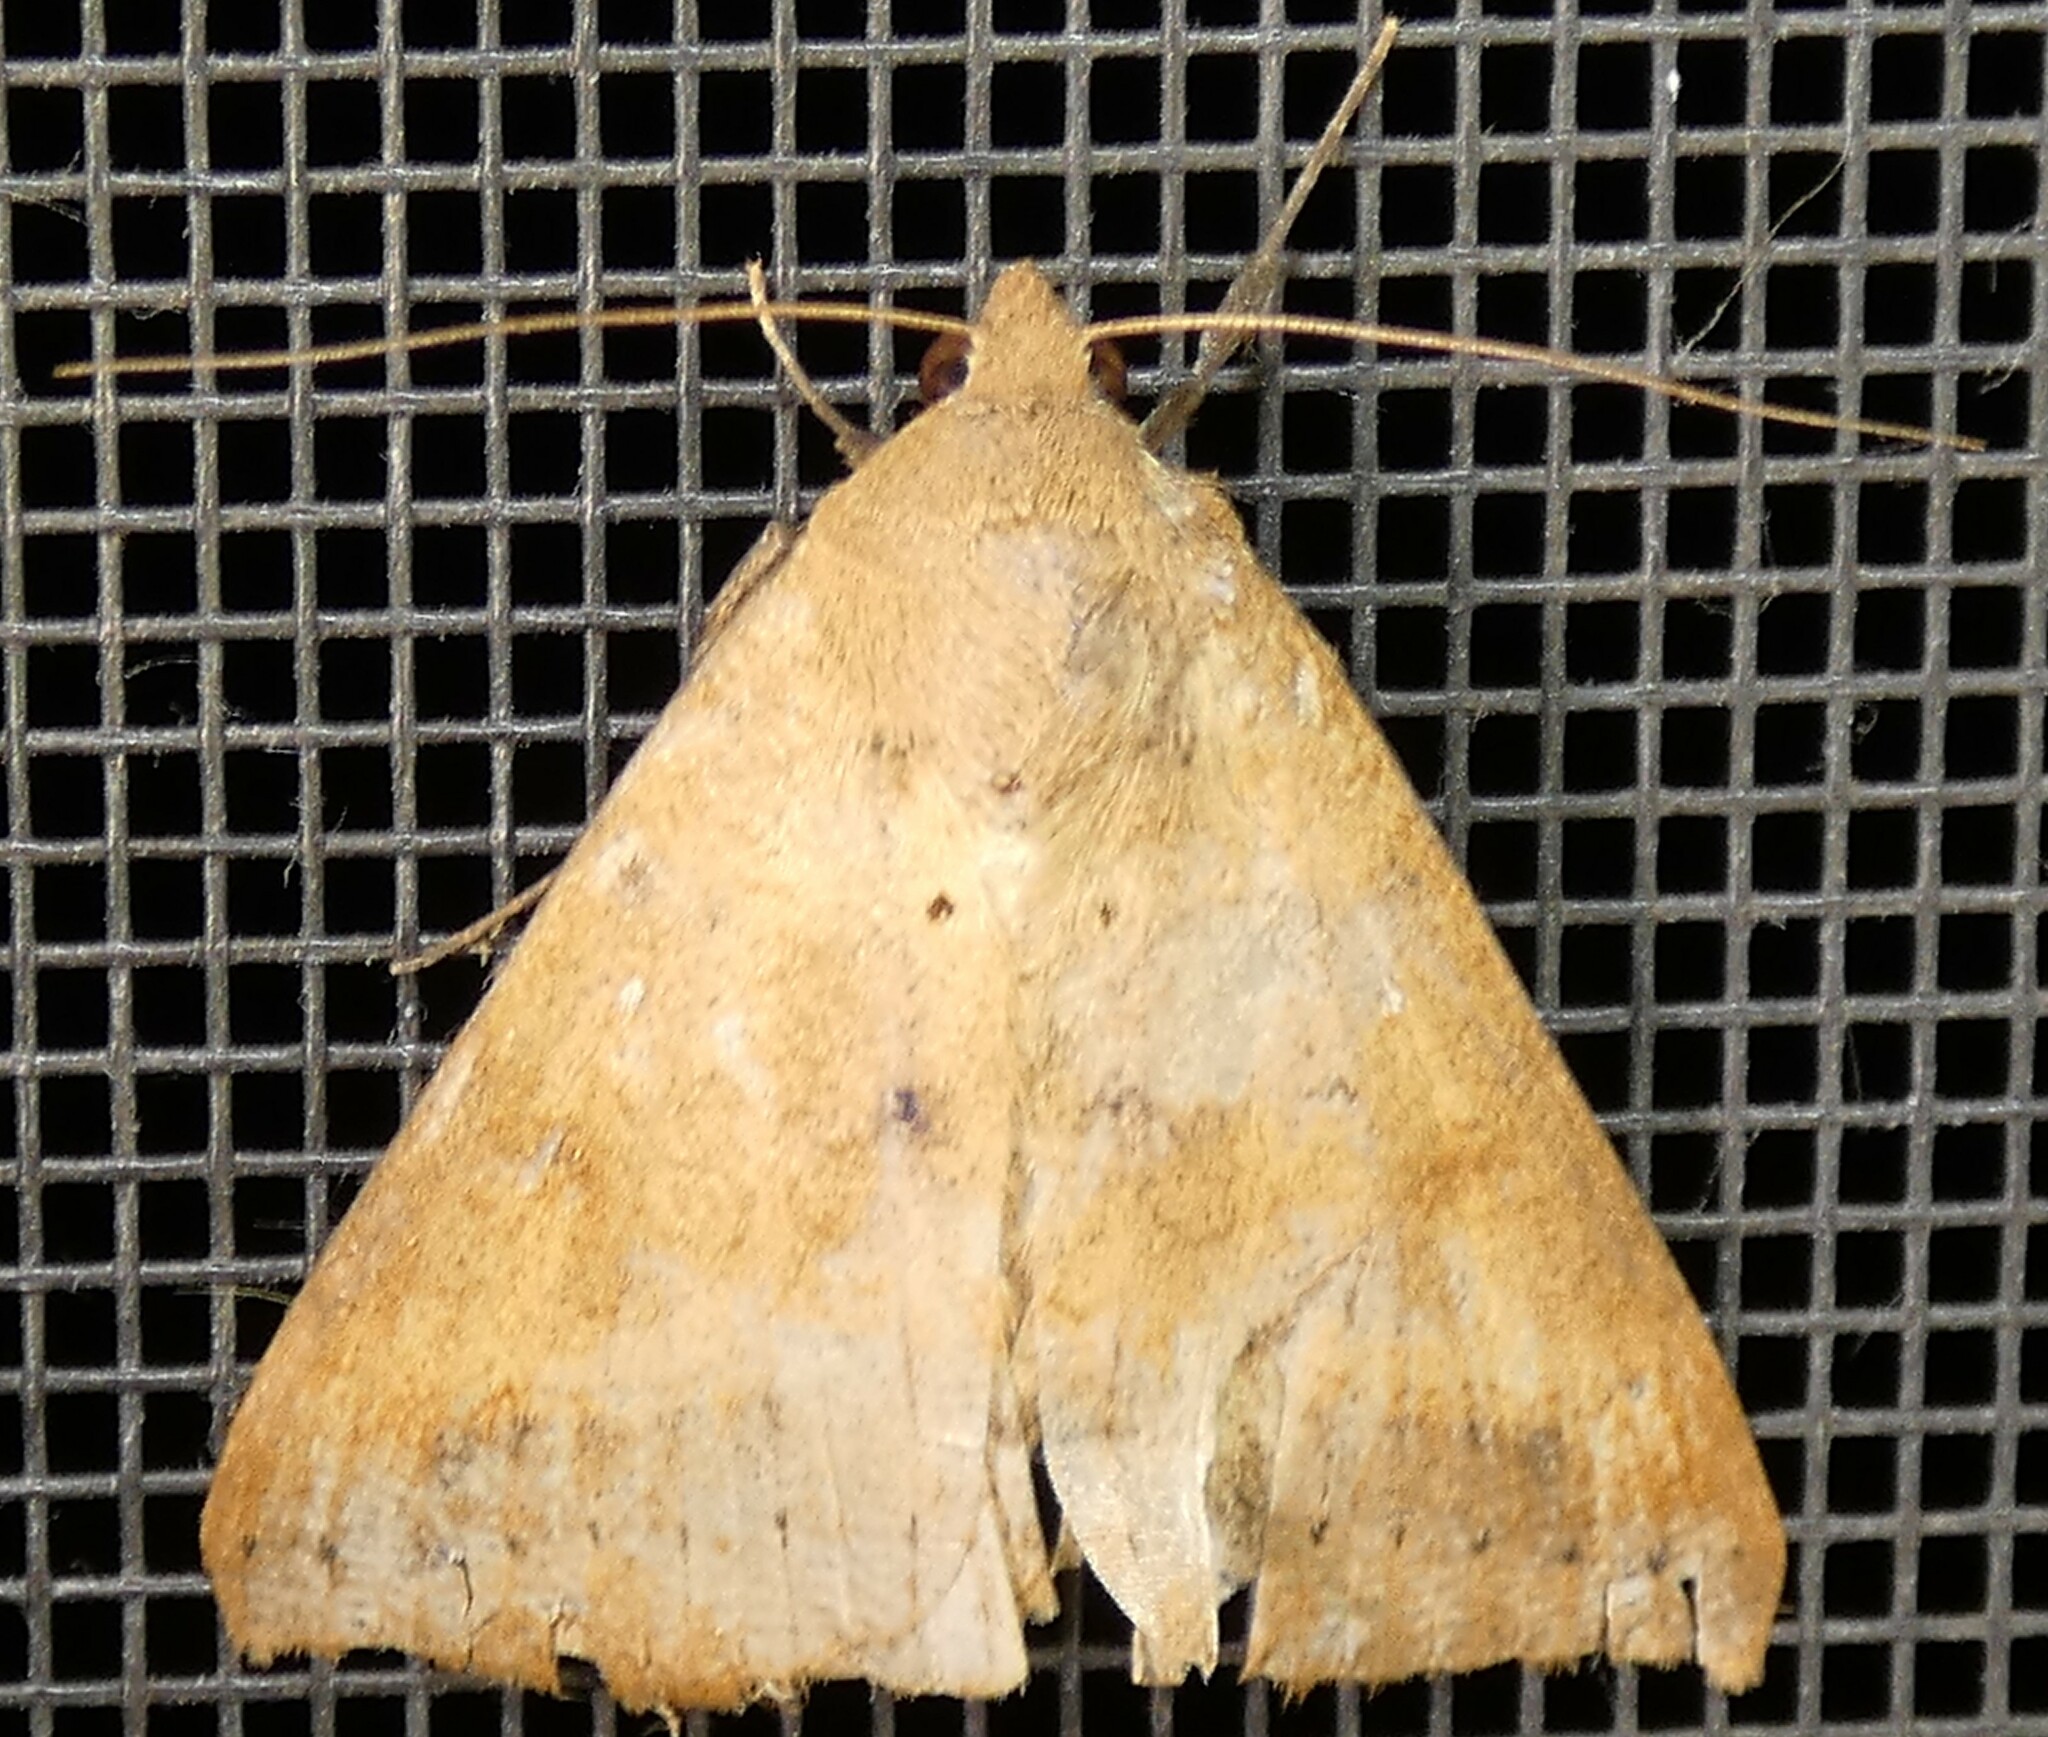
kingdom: Animalia
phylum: Arthropoda
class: Insecta
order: Lepidoptera
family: Erebidae
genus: Mocis
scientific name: Mocis disseverans
